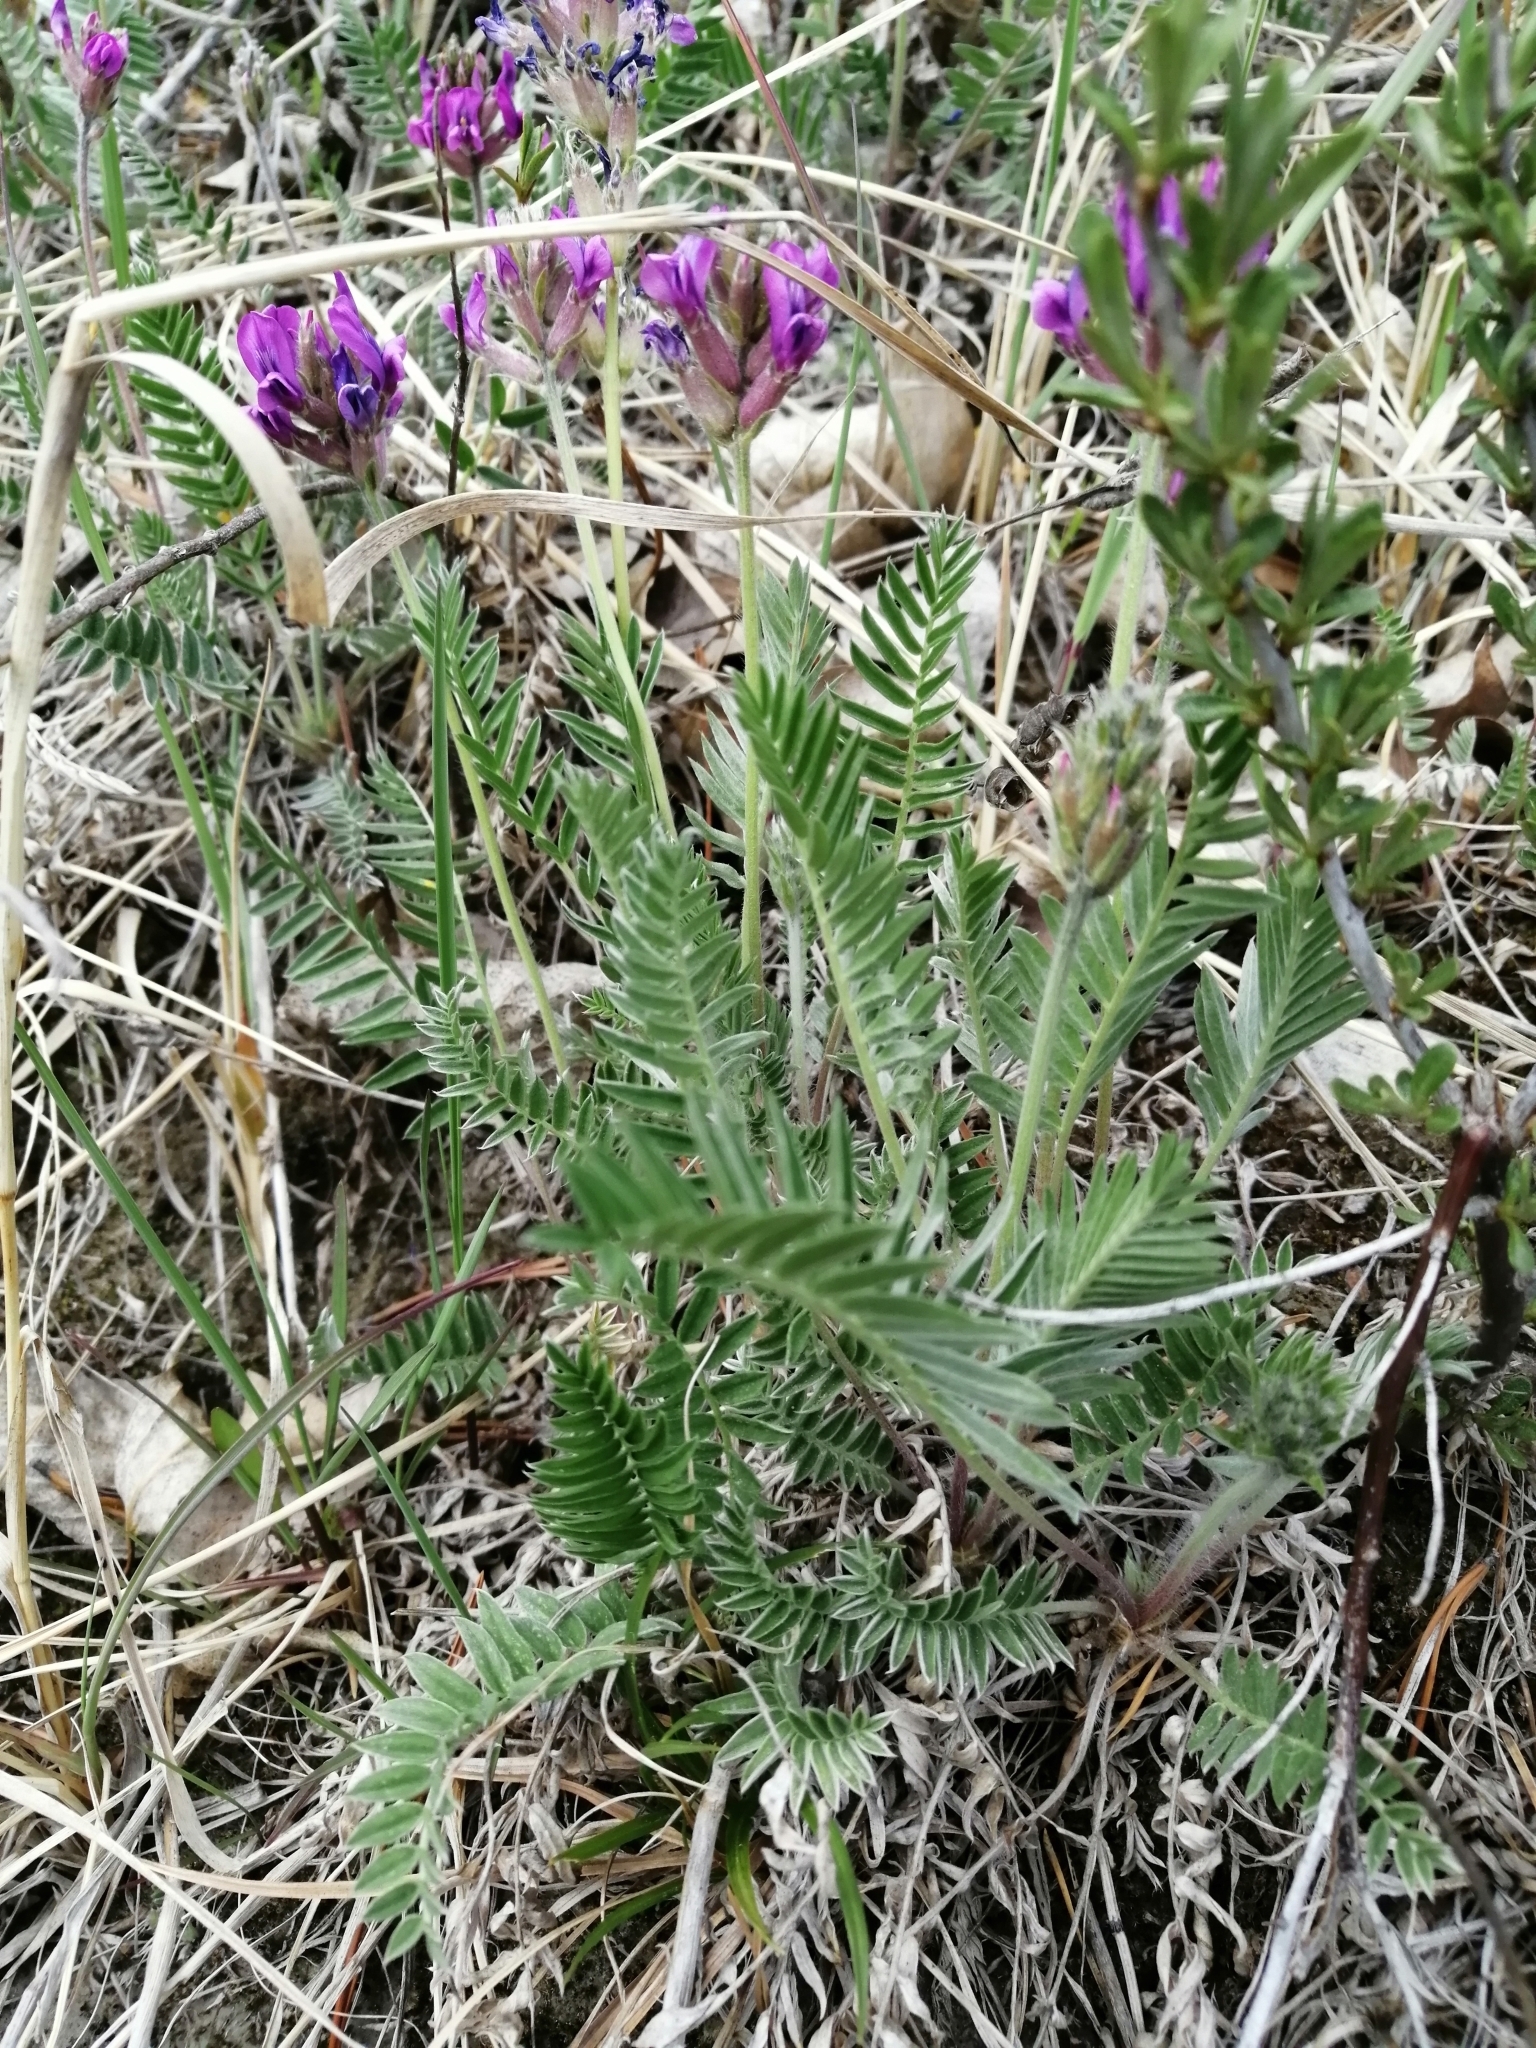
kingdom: Plantae
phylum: Tracheophyta
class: Magnoliopsida
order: Fabales
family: Fabaceae
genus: Oxytropis
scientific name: Oxytropis strobilacea
